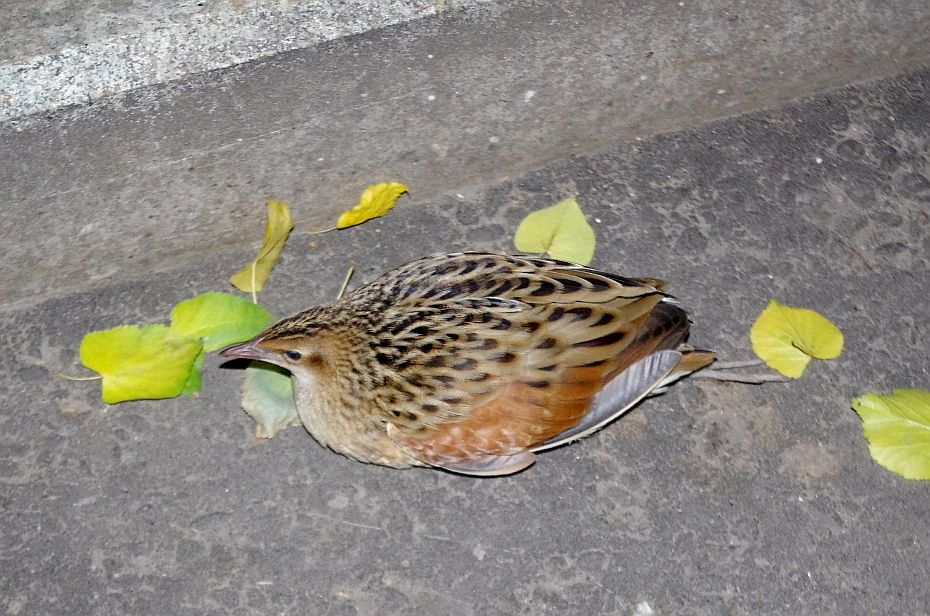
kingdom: Animalia
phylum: Chordata
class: Aves
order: Gruiformes
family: Rallidae
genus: Crex
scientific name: Crex crex
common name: Corn crake
